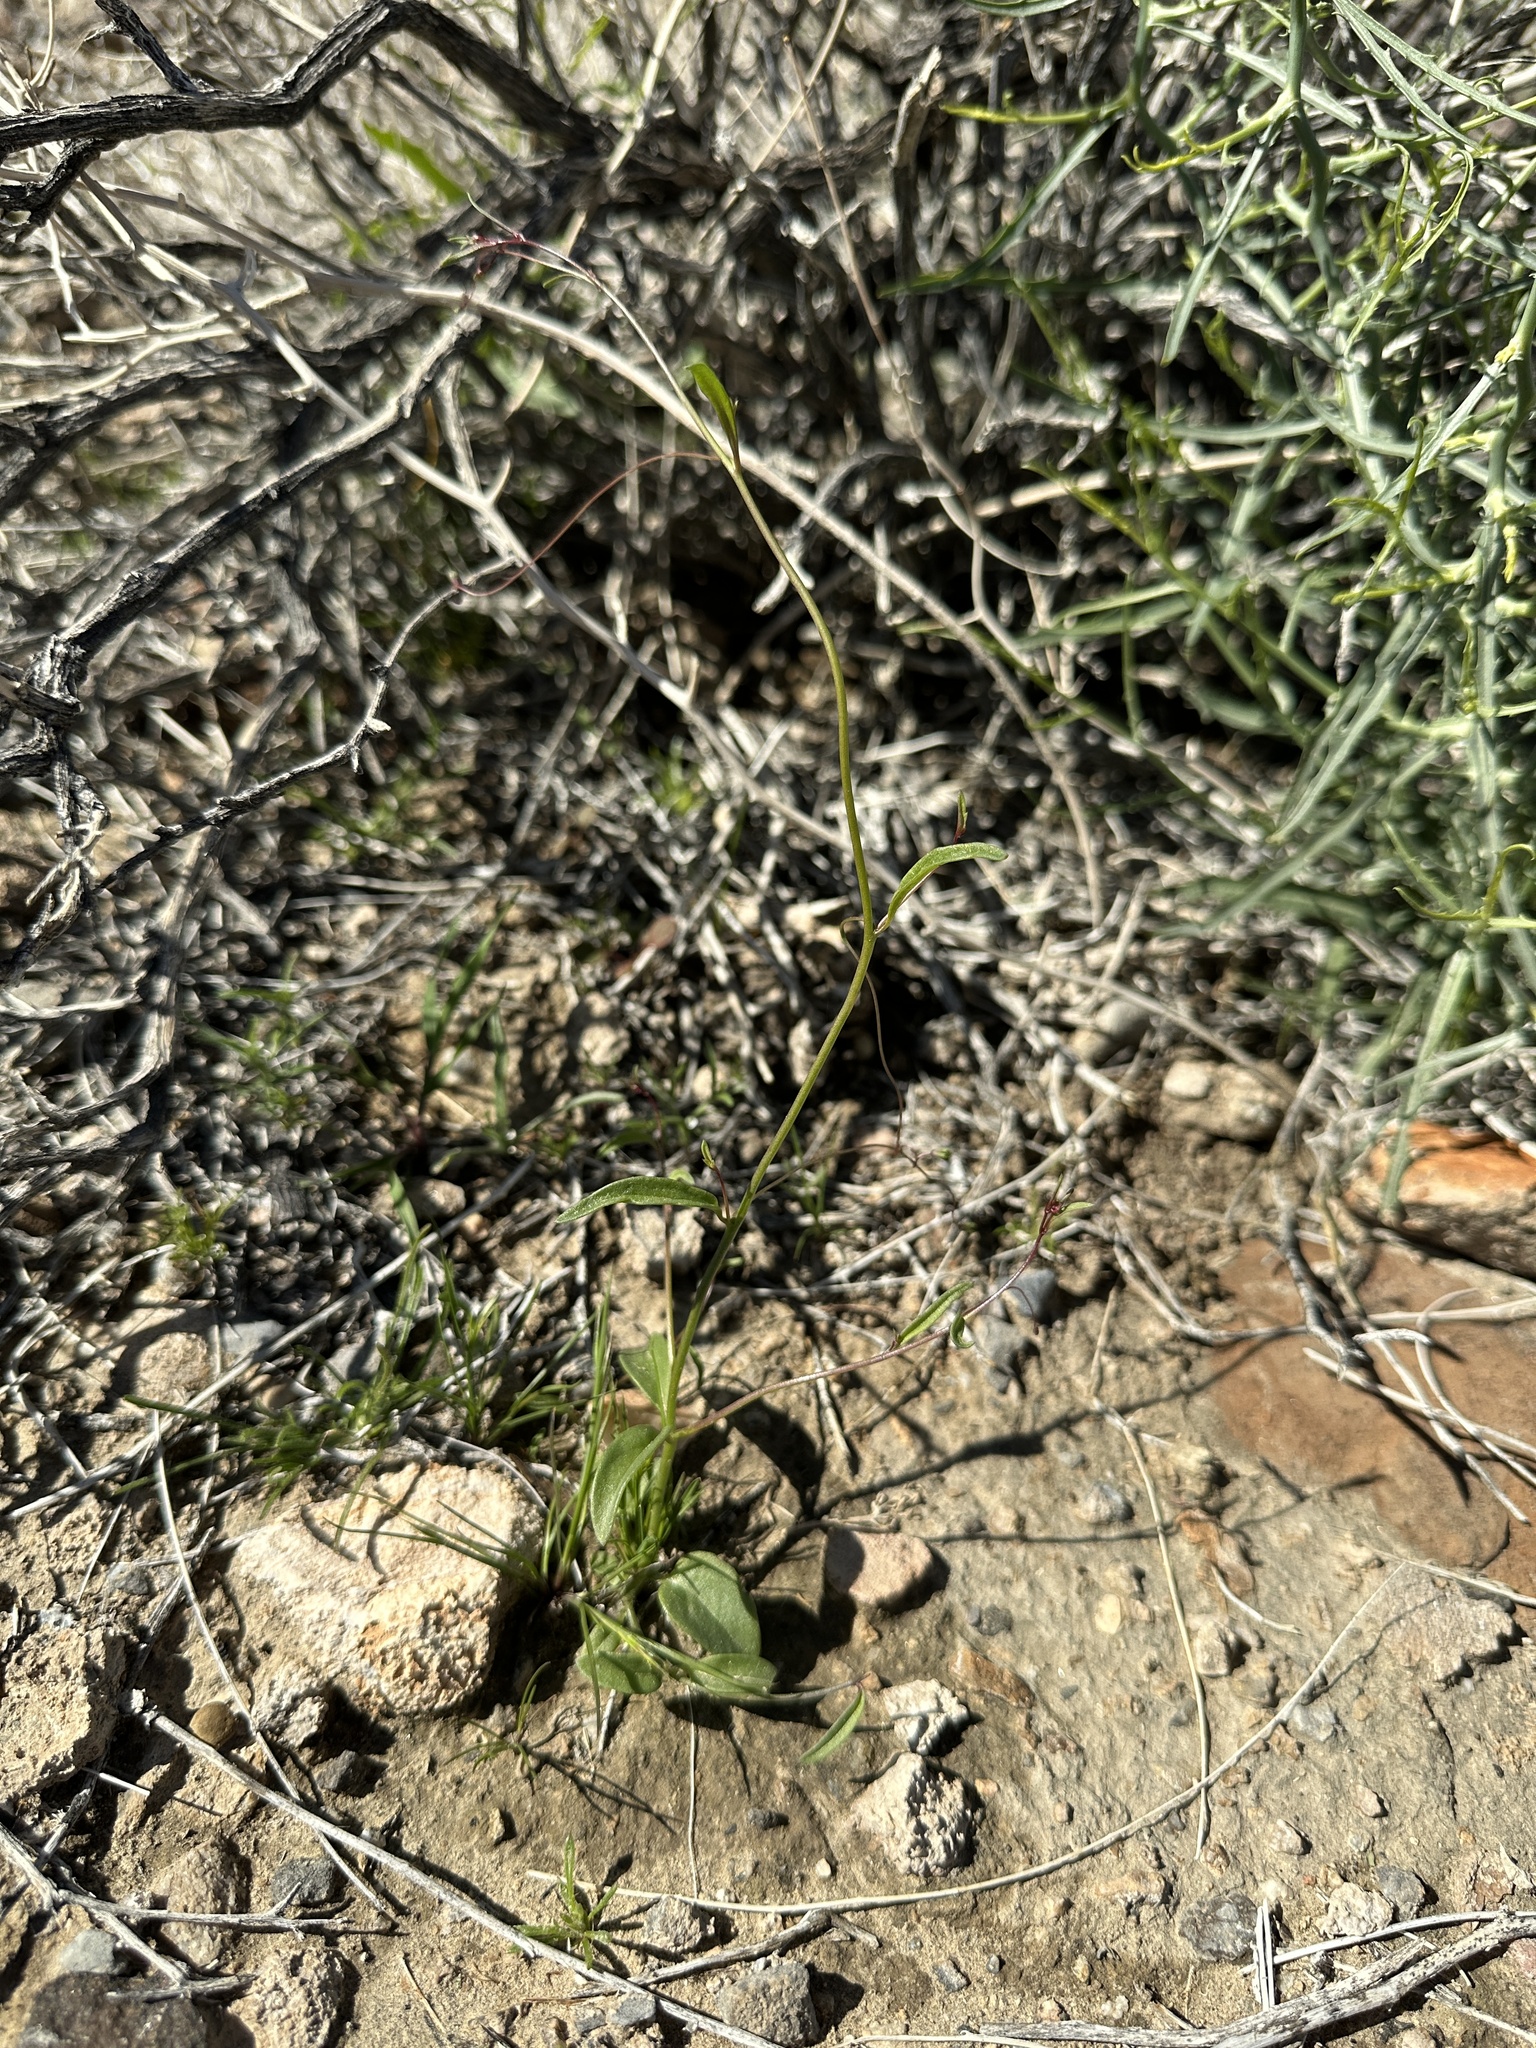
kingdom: Plantae
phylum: Tracheophyta
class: Magnoliopsida
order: Lamiales
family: Plantaginaceae
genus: Neogaerrhinum
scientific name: Neogaerrhinum filipes
